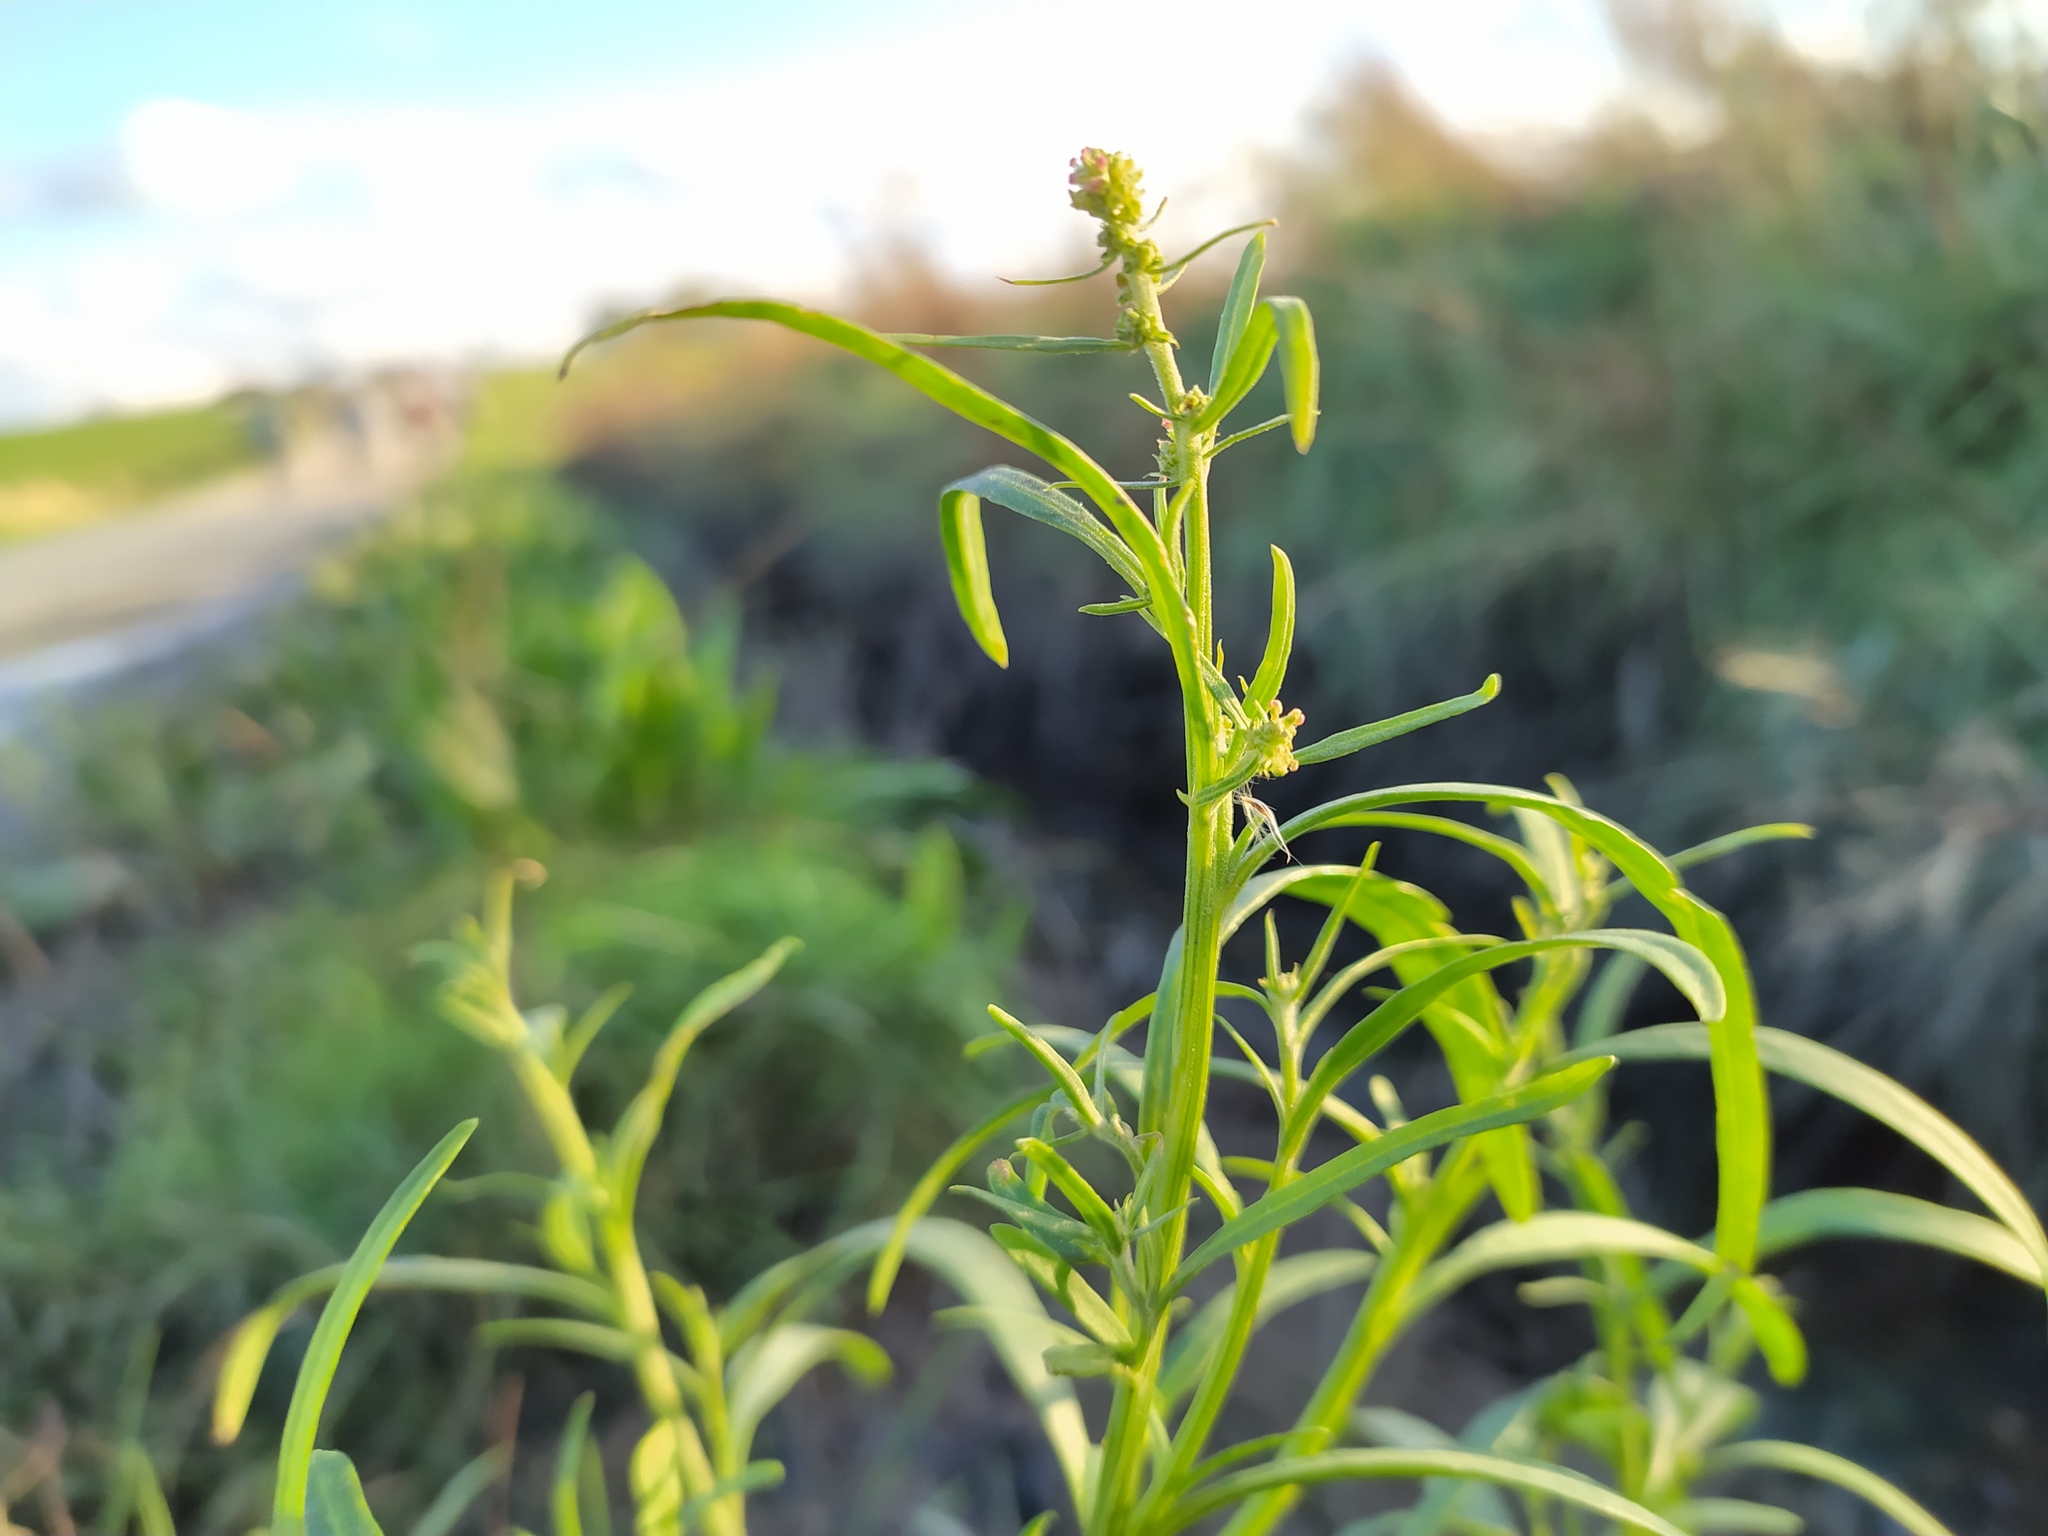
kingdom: Plantae
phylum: Tracheophyta
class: Magnoliopsida
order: Caryophyllales
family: Amaranthaceae
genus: Atriplex
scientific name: Atriplex littoralis
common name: Grass-leaved orache
